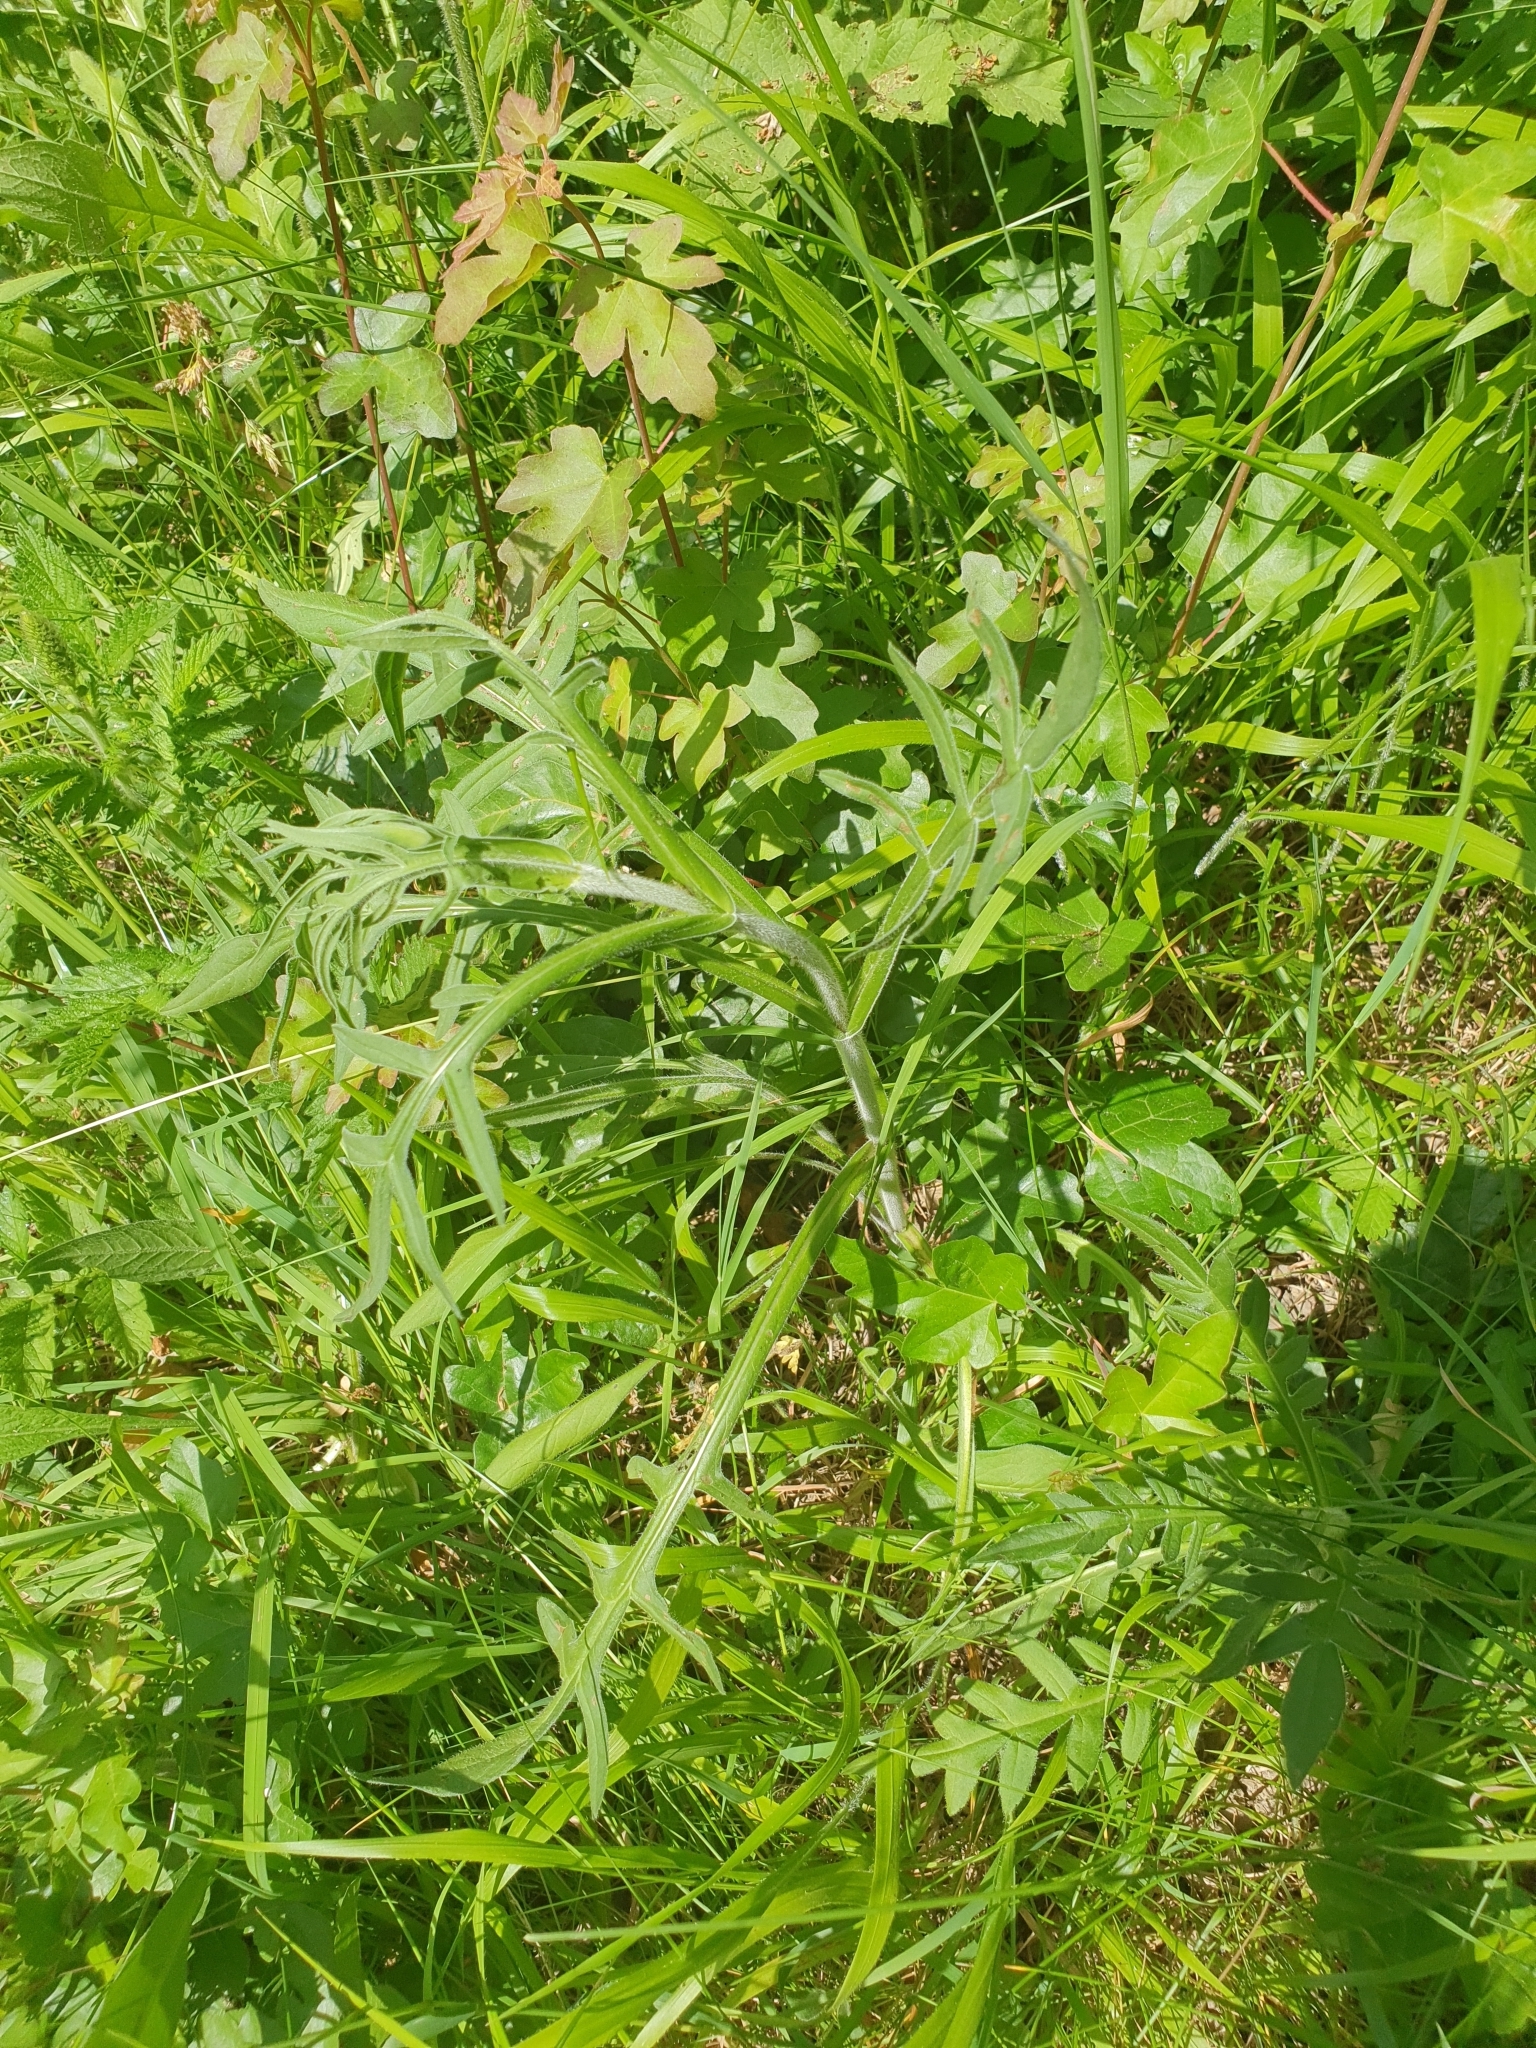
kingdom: Plantae
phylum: Tracheophyta
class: Magnoliopsida
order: Dipsacales
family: Caprifoliaceae
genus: Knautia
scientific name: Knautia arvensis
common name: Field scabiosa
